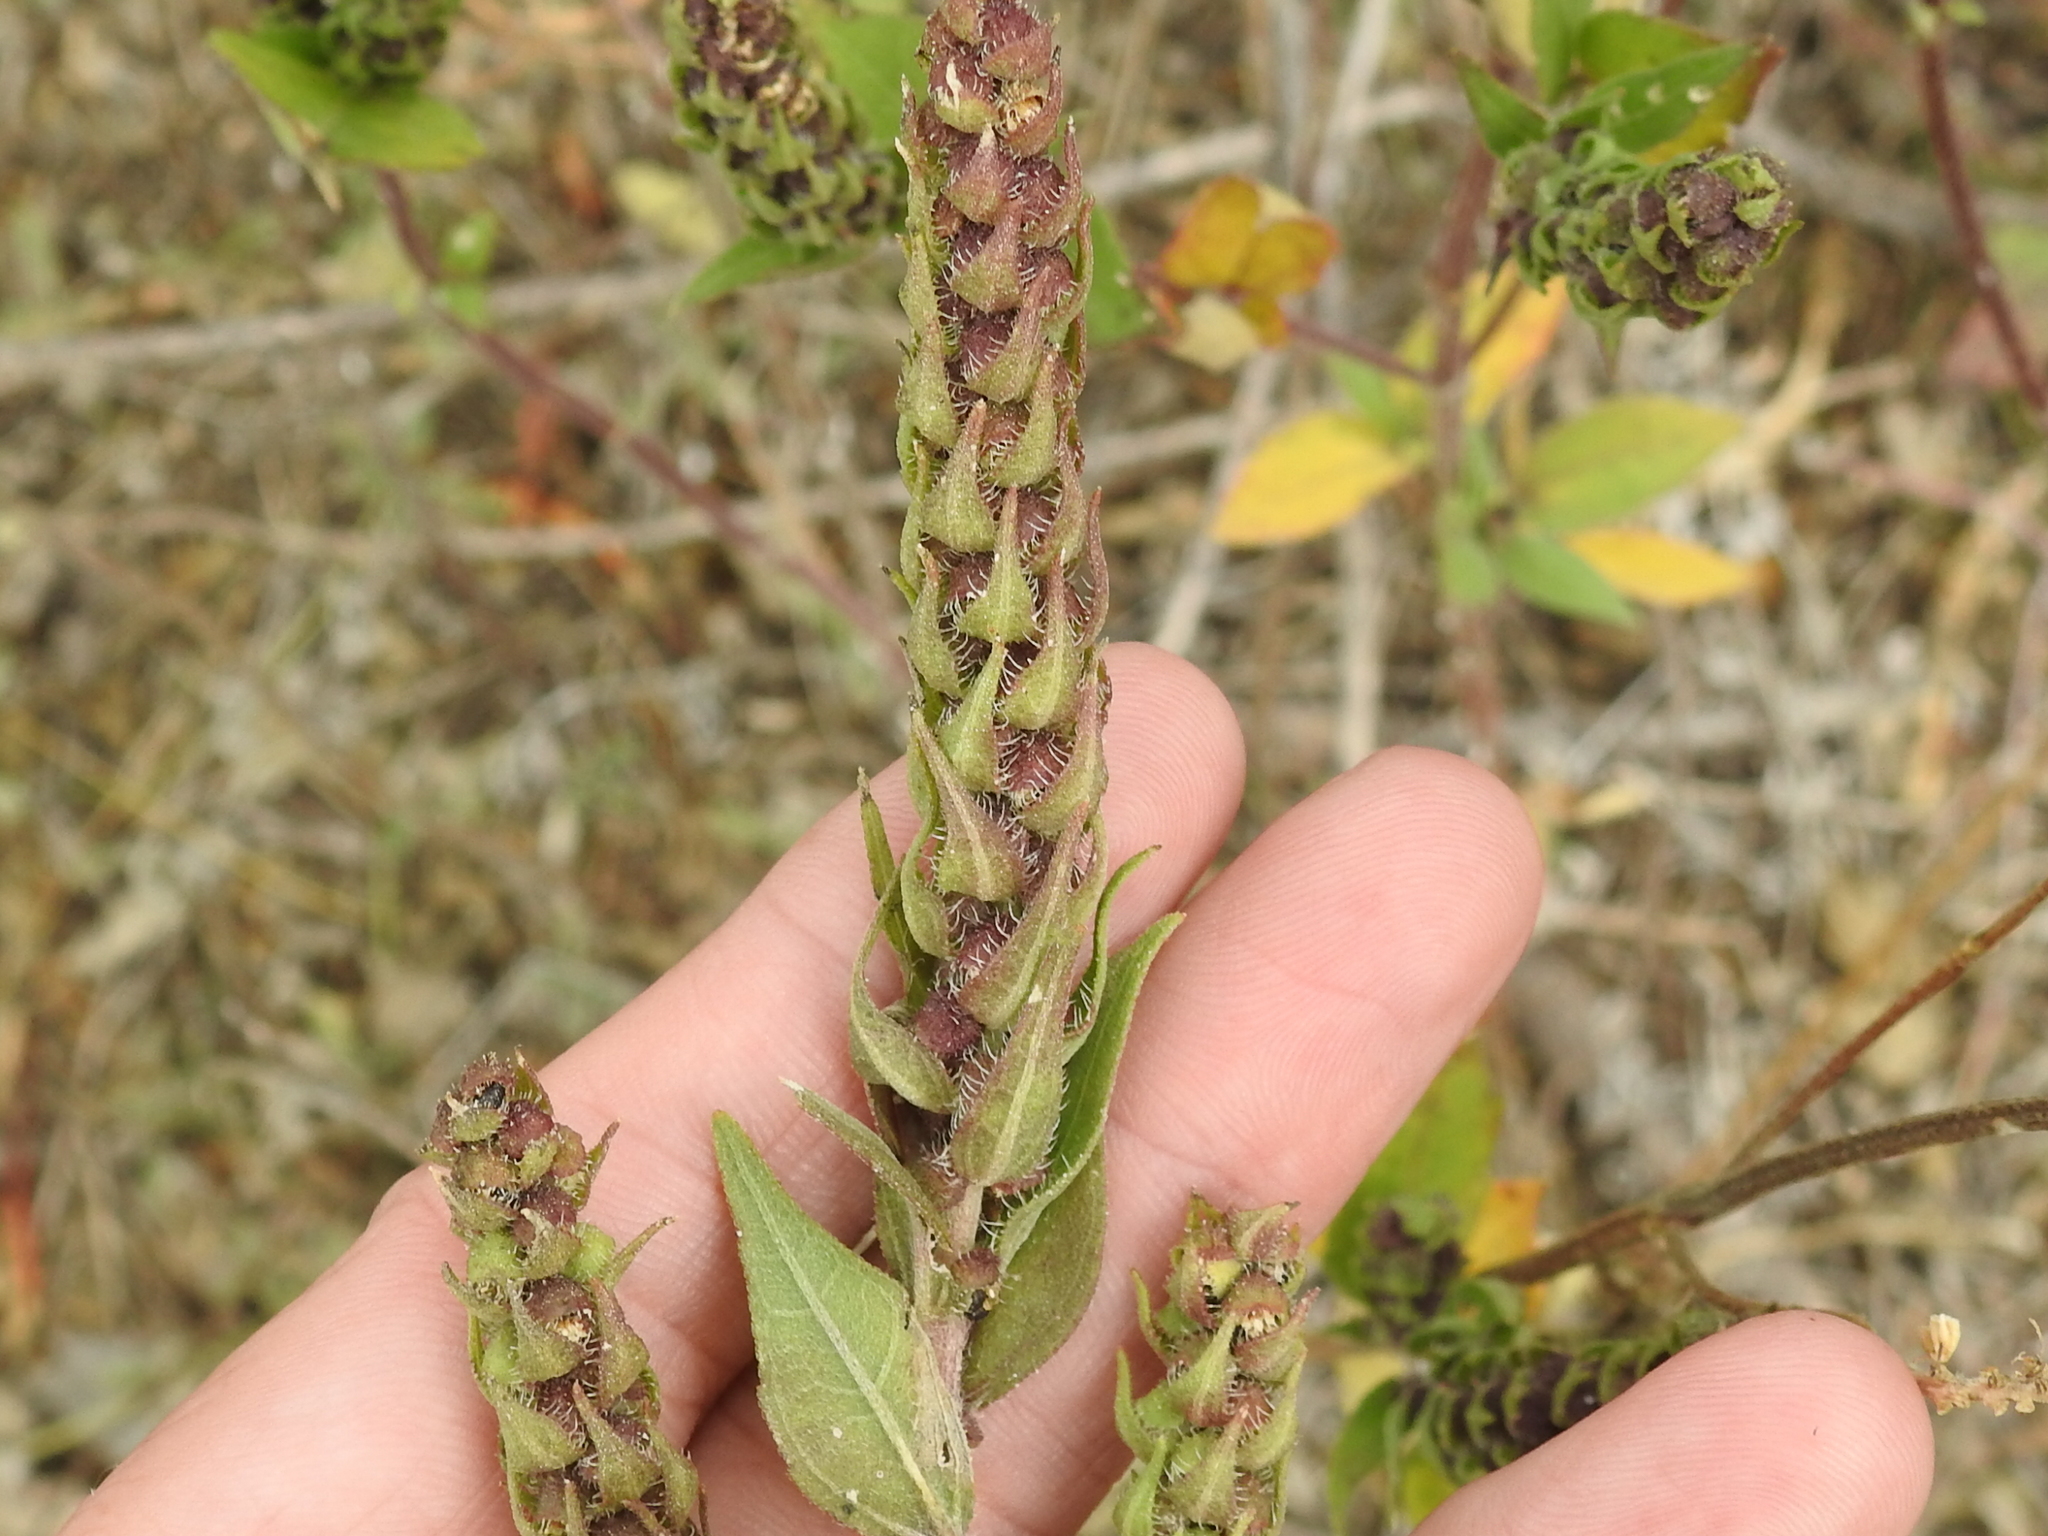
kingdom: Plantae
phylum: Tracheophyta
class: Magnoliopsida
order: Asterales
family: Asteraceae
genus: Iva
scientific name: Iva annua
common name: Marsh-elder
